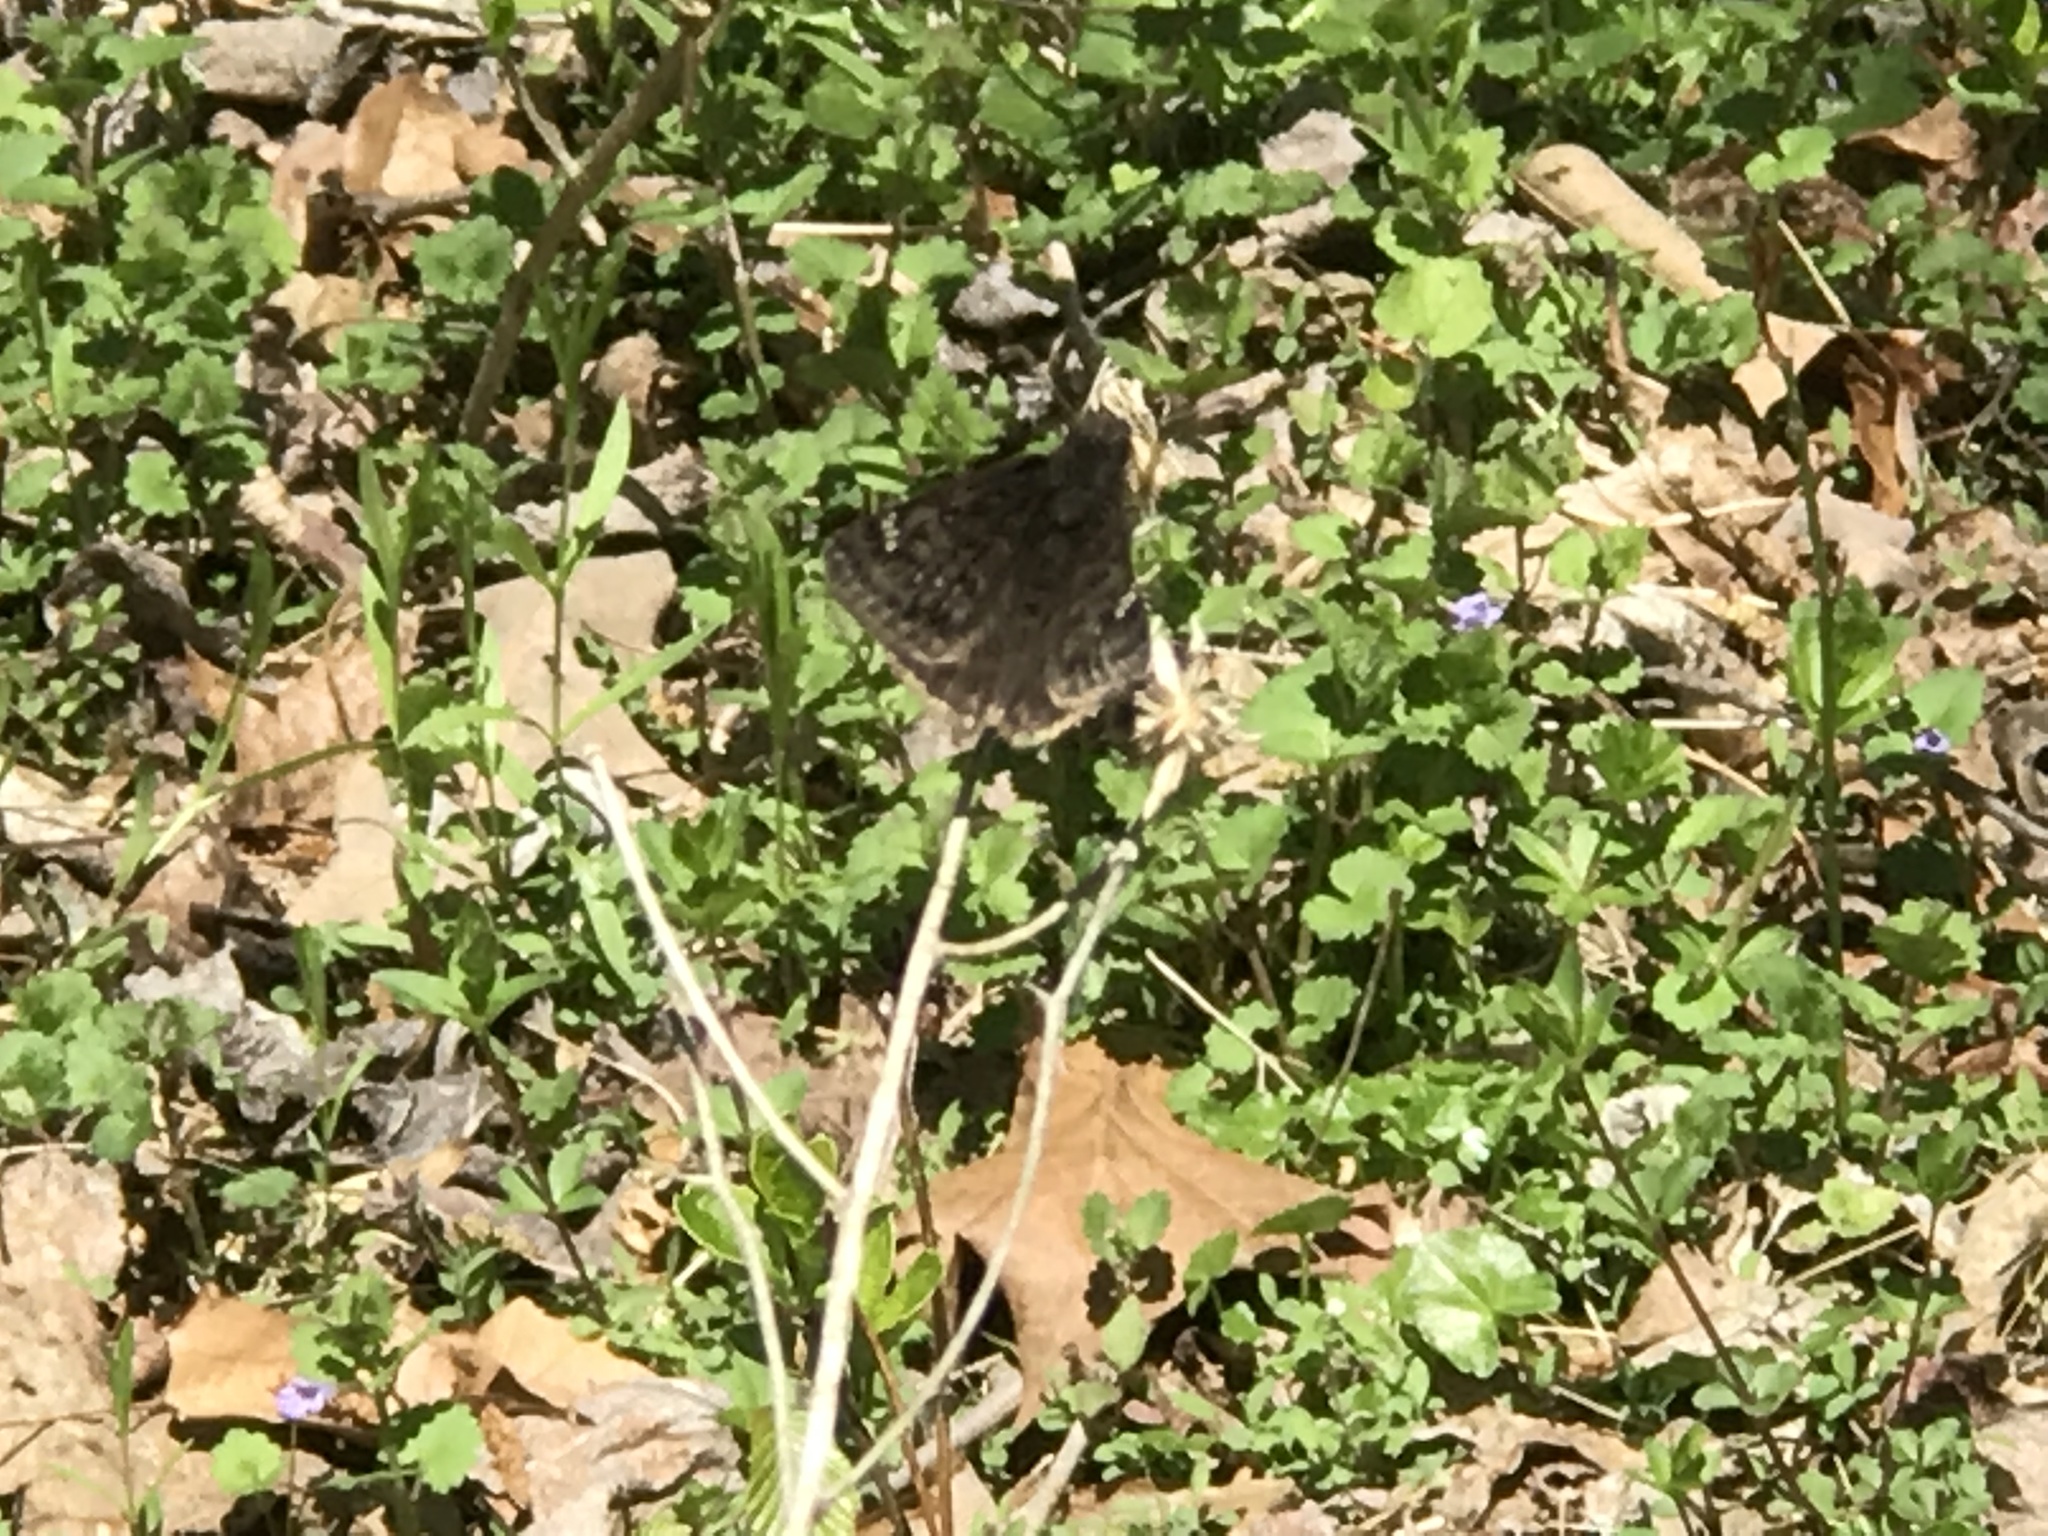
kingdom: Animalia
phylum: Arthropoda
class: Insecta
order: Lepidoptera
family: Hesperiidae
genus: Erynnis
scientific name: Erynnis juvenalis
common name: Juvenal's duskywing
